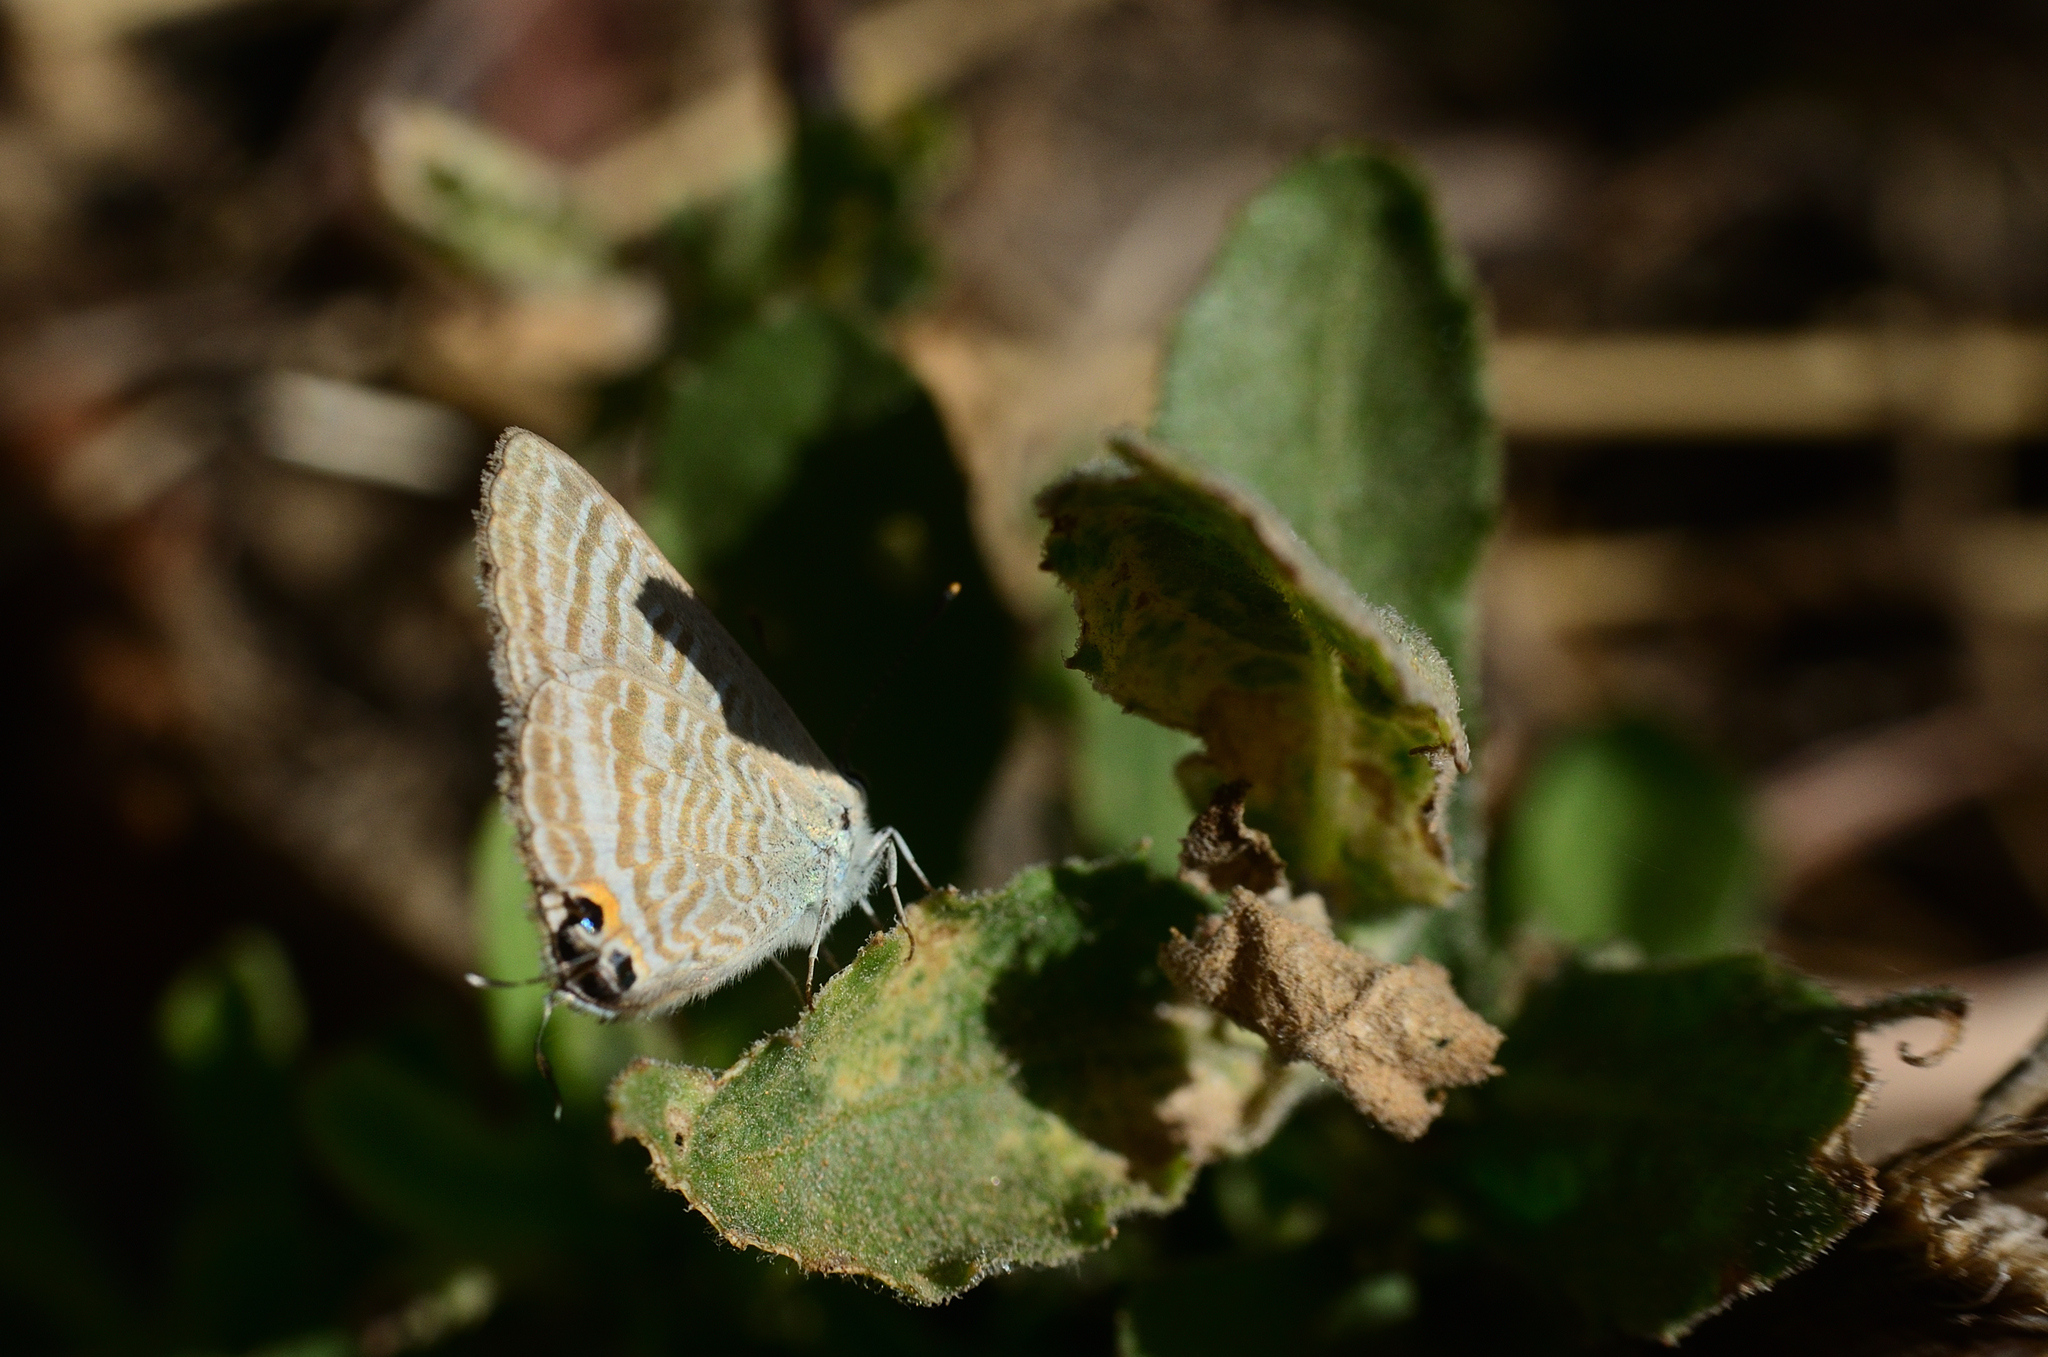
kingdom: Animalia
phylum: Arthropoda
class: Insecta
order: Lepidoptera
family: Lycaenidae
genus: Lampides
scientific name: Lampides boeticus
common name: Long-tailed blue
